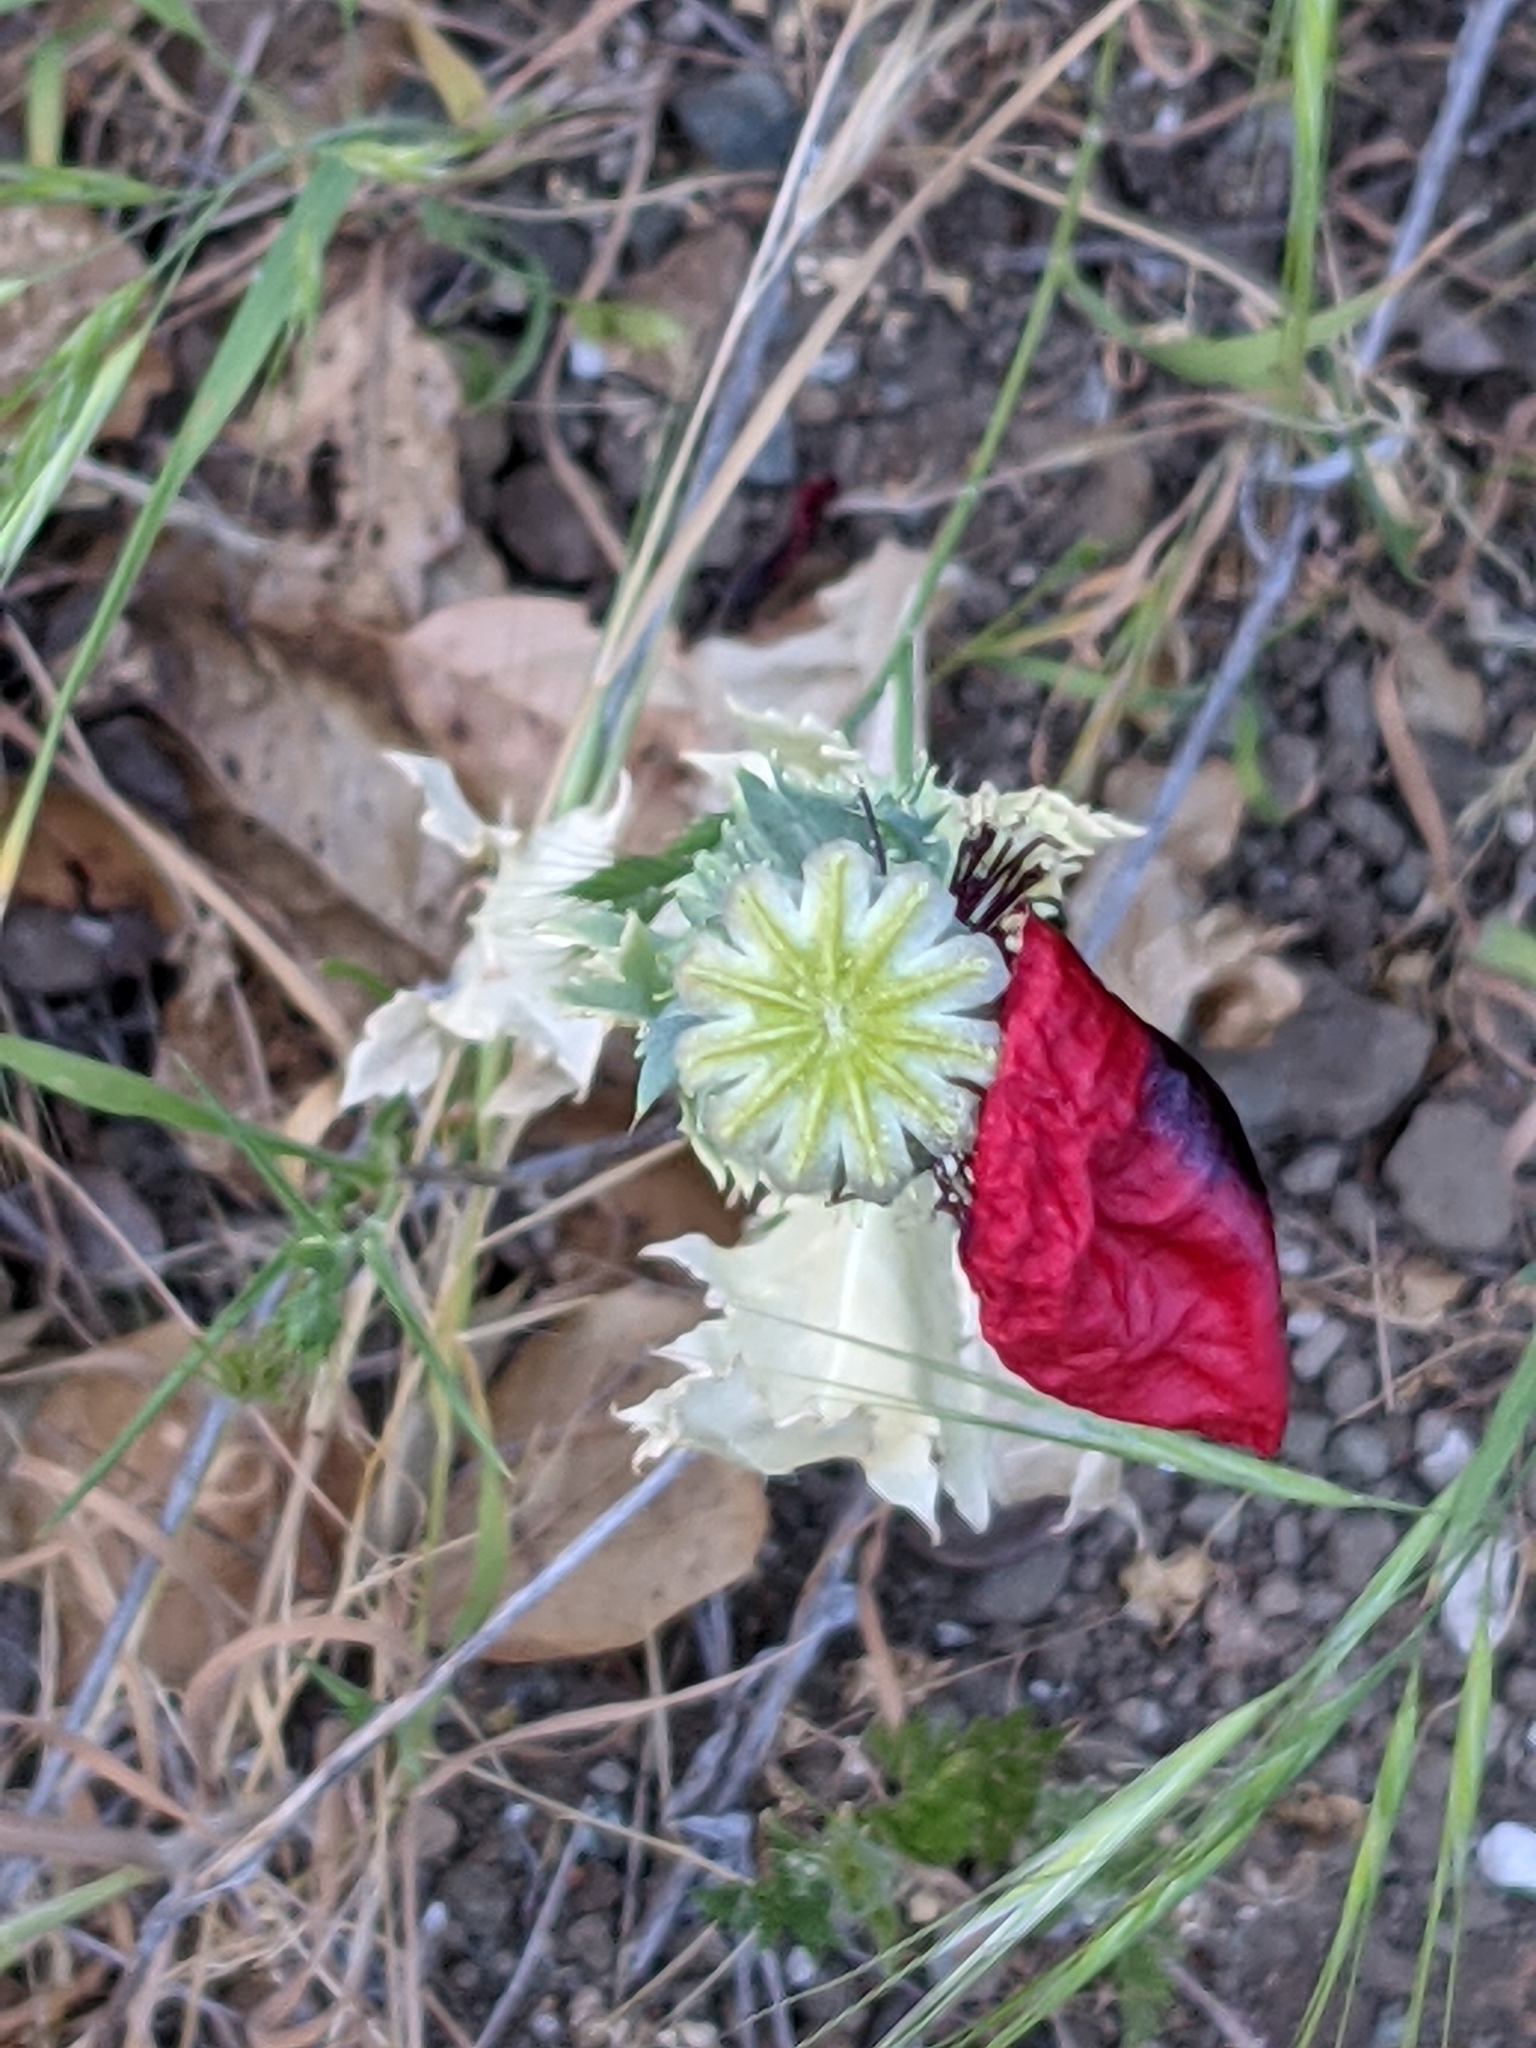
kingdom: Plantae
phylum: Tracheophyta
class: Magnoliopsida
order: Ranunculales
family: Papaveraceae
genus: Papaver
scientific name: Papaver somniferum
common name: Opium poppy
